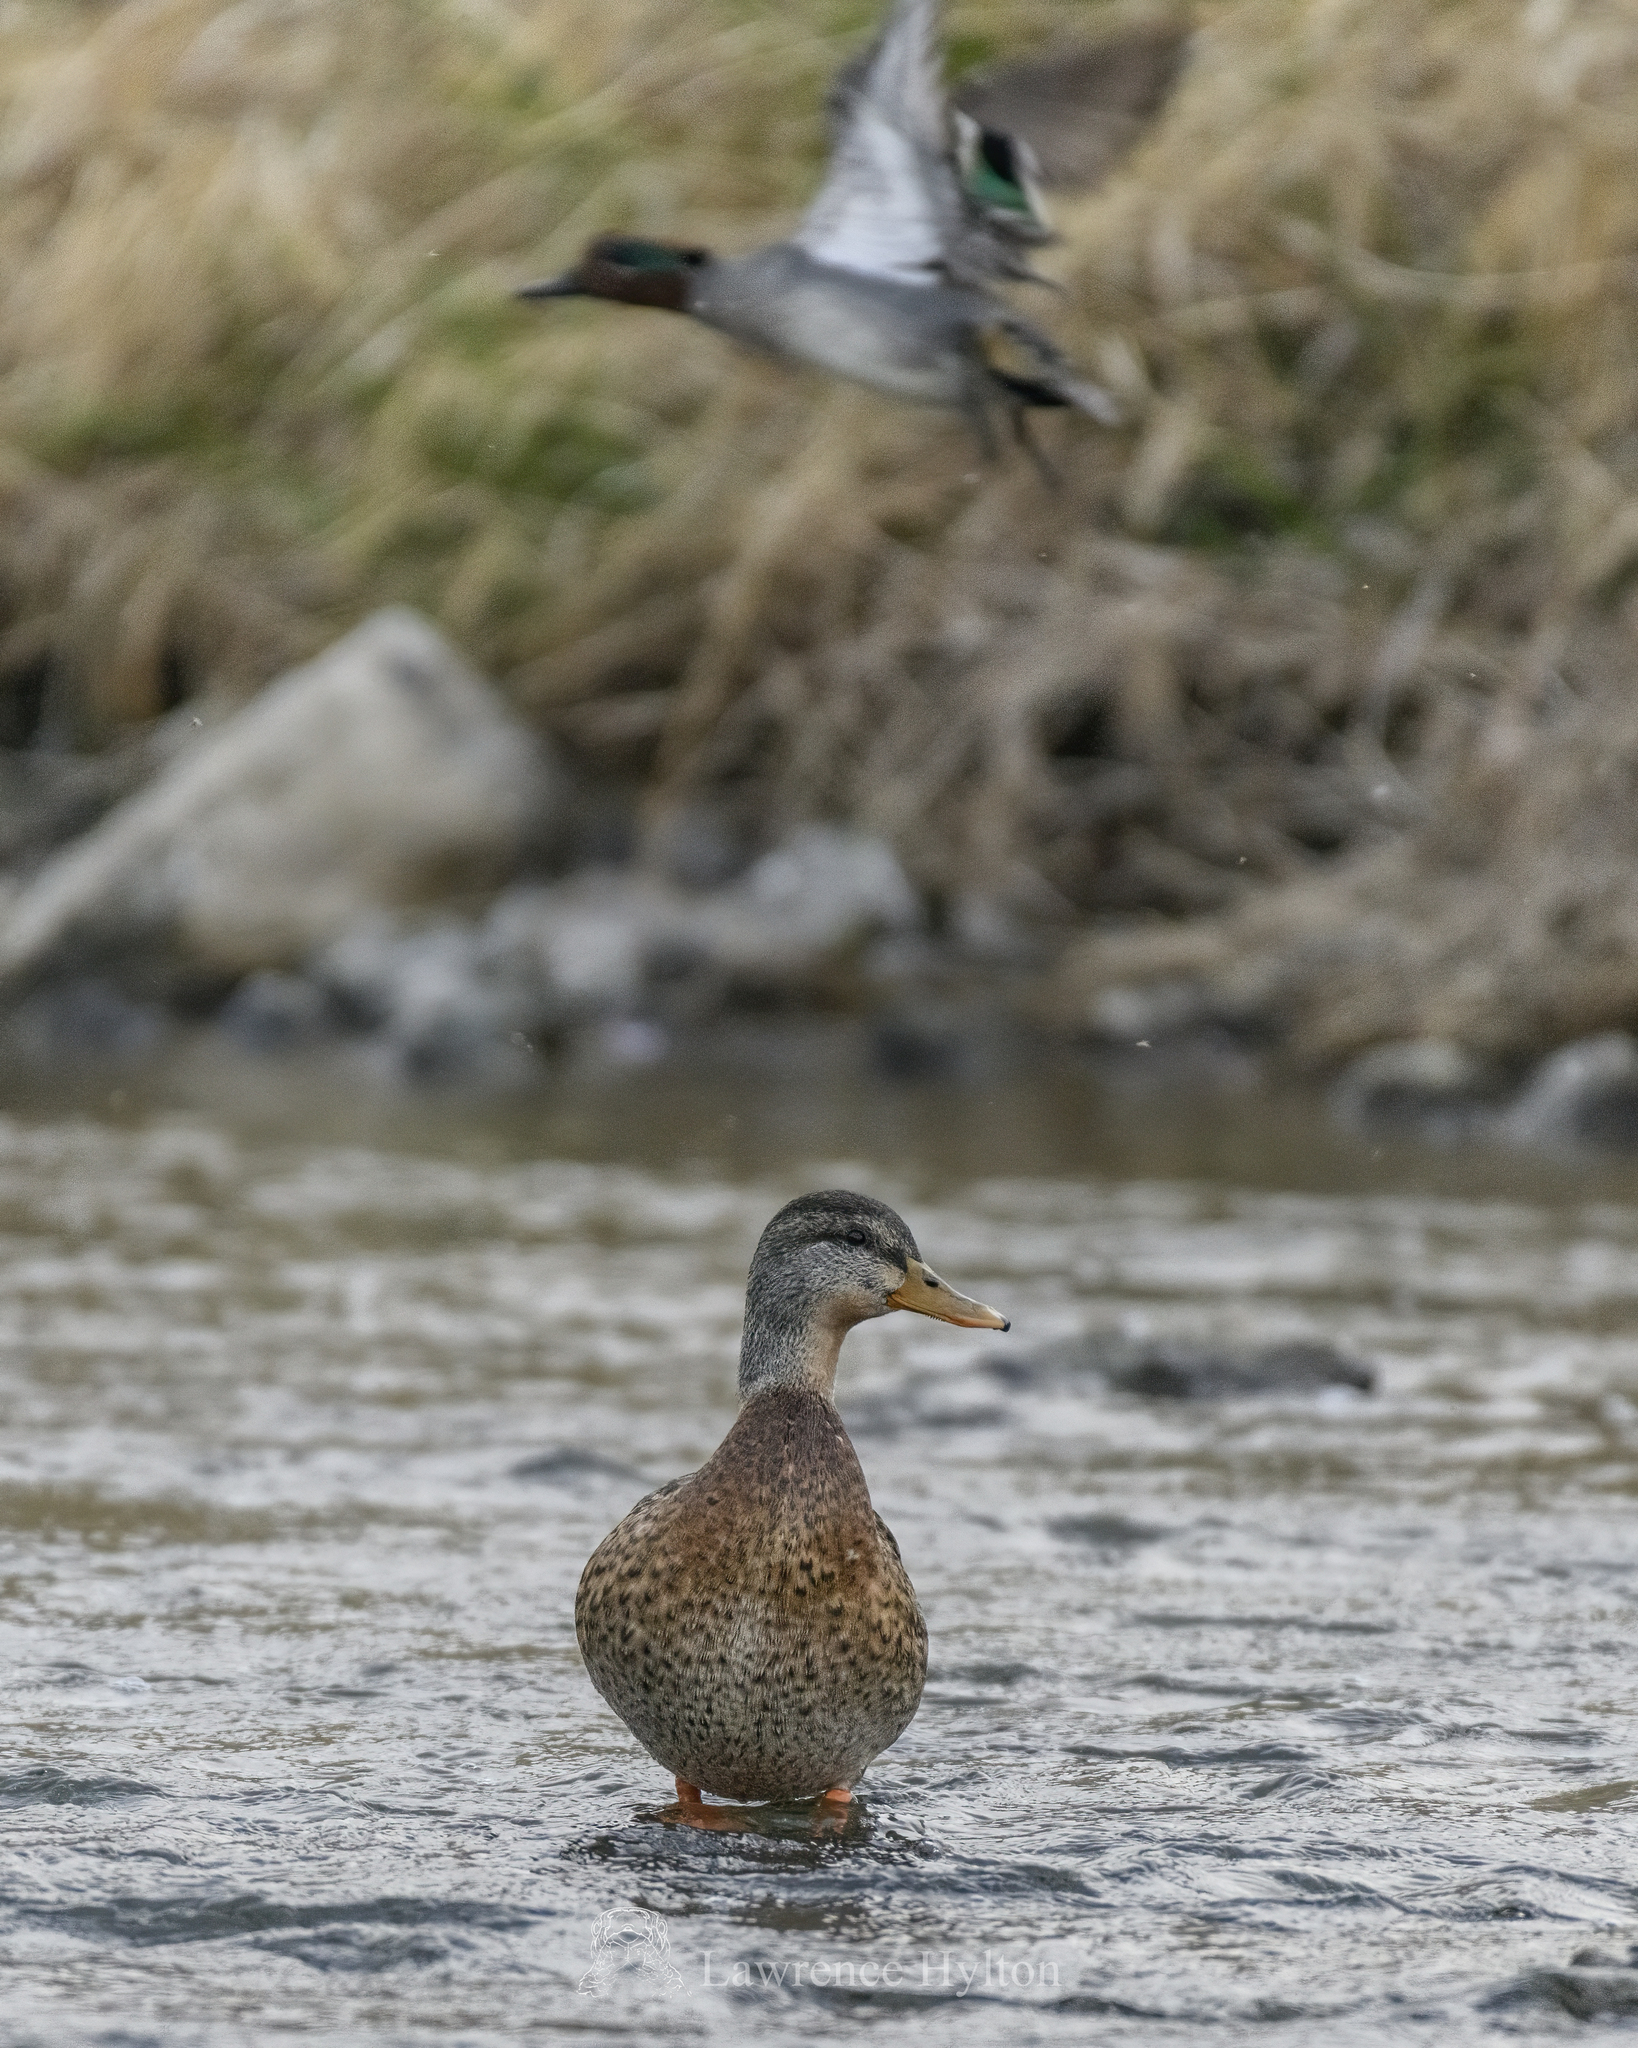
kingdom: Animalia
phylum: Chordata
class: Aves
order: Anseriformes
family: Anatidae
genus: Anas
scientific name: Anas platyrhynchos
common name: Mallard
